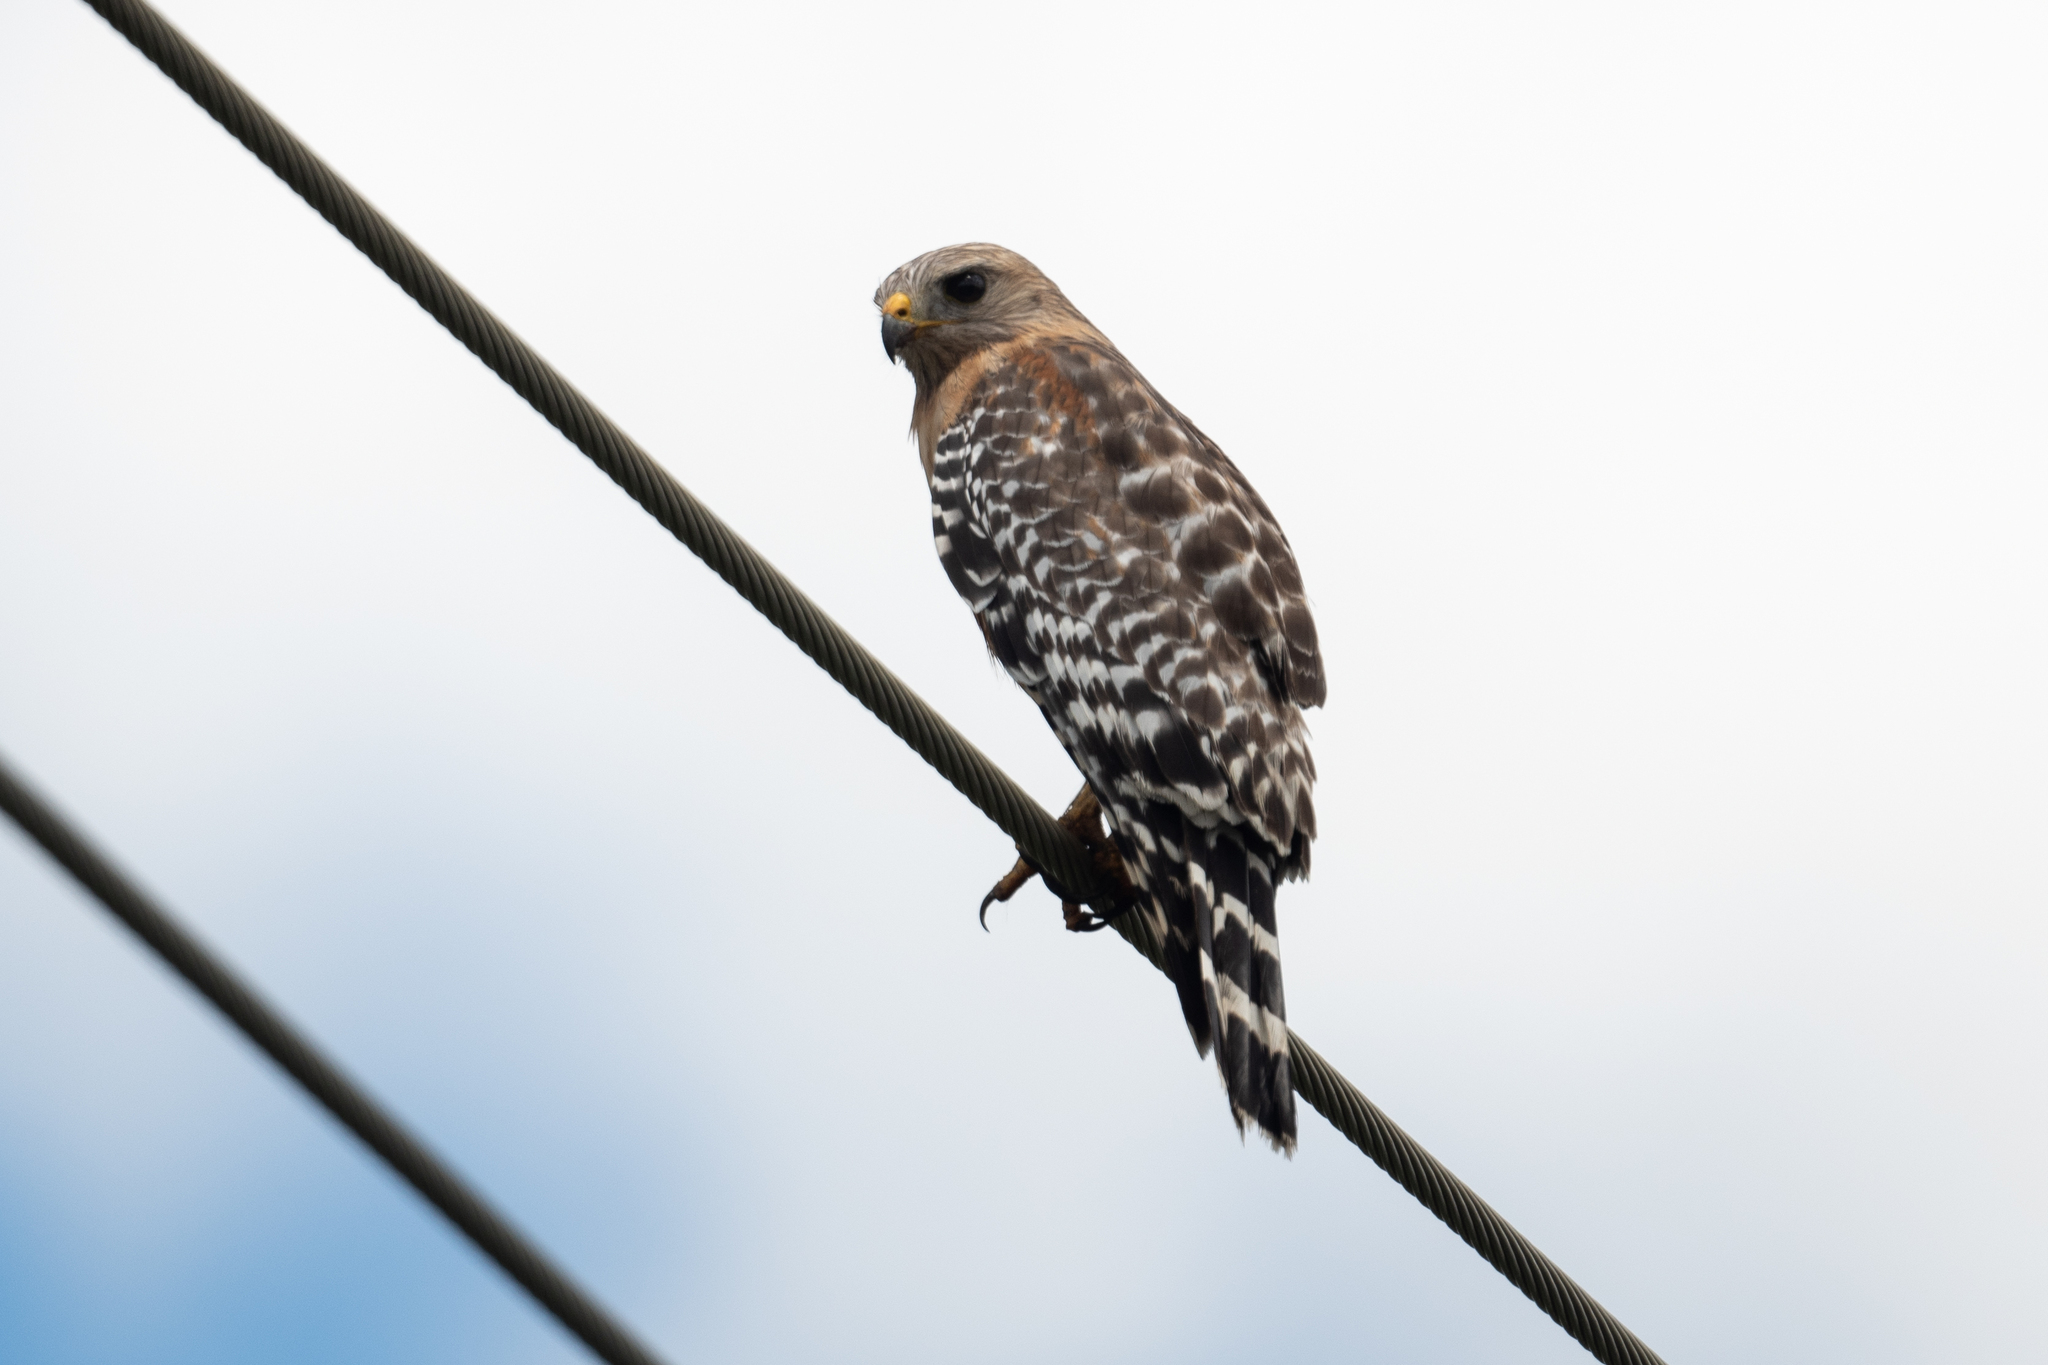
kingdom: Animalia
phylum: Chordata
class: Aves
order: Accipitriformes
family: Accipitridae
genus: Buteo
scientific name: Buteo lineatus
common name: Red-shouldered hawk
